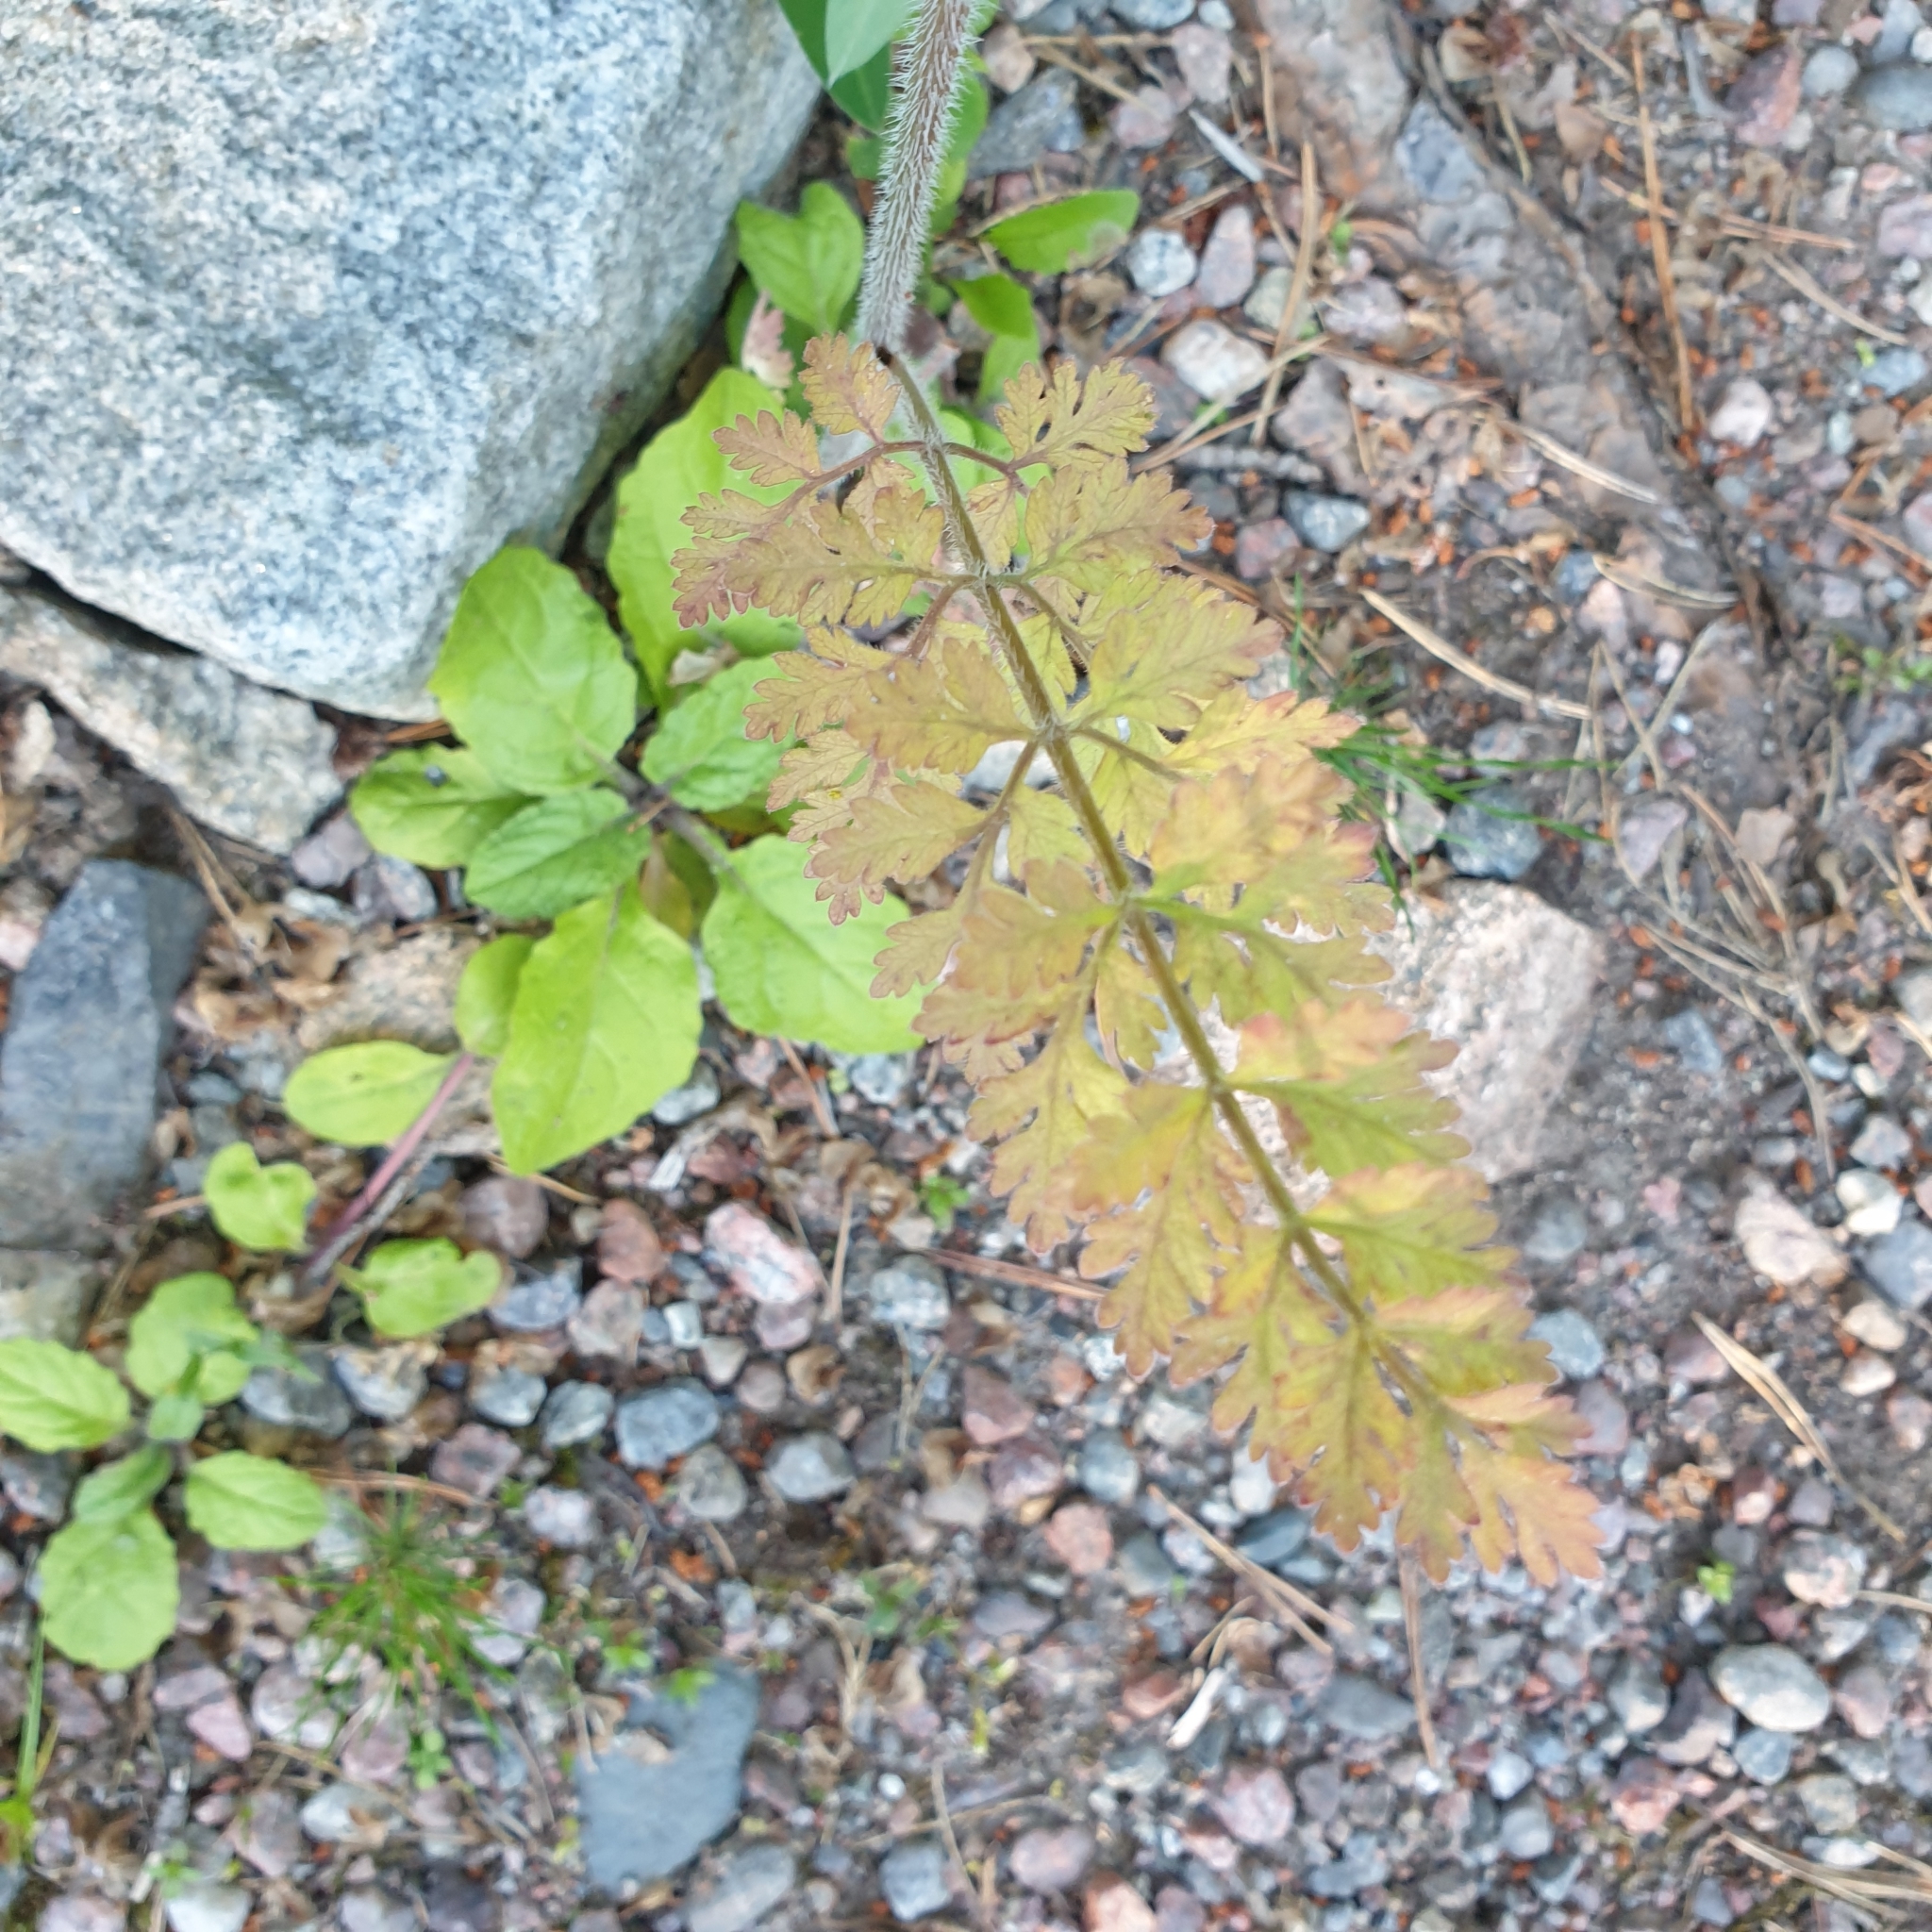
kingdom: Plantae
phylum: Tracheophyta
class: Magnoliopsida
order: Apiales
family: Apiaceae
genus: Daucus
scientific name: Daucus carota
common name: Wild carrot
